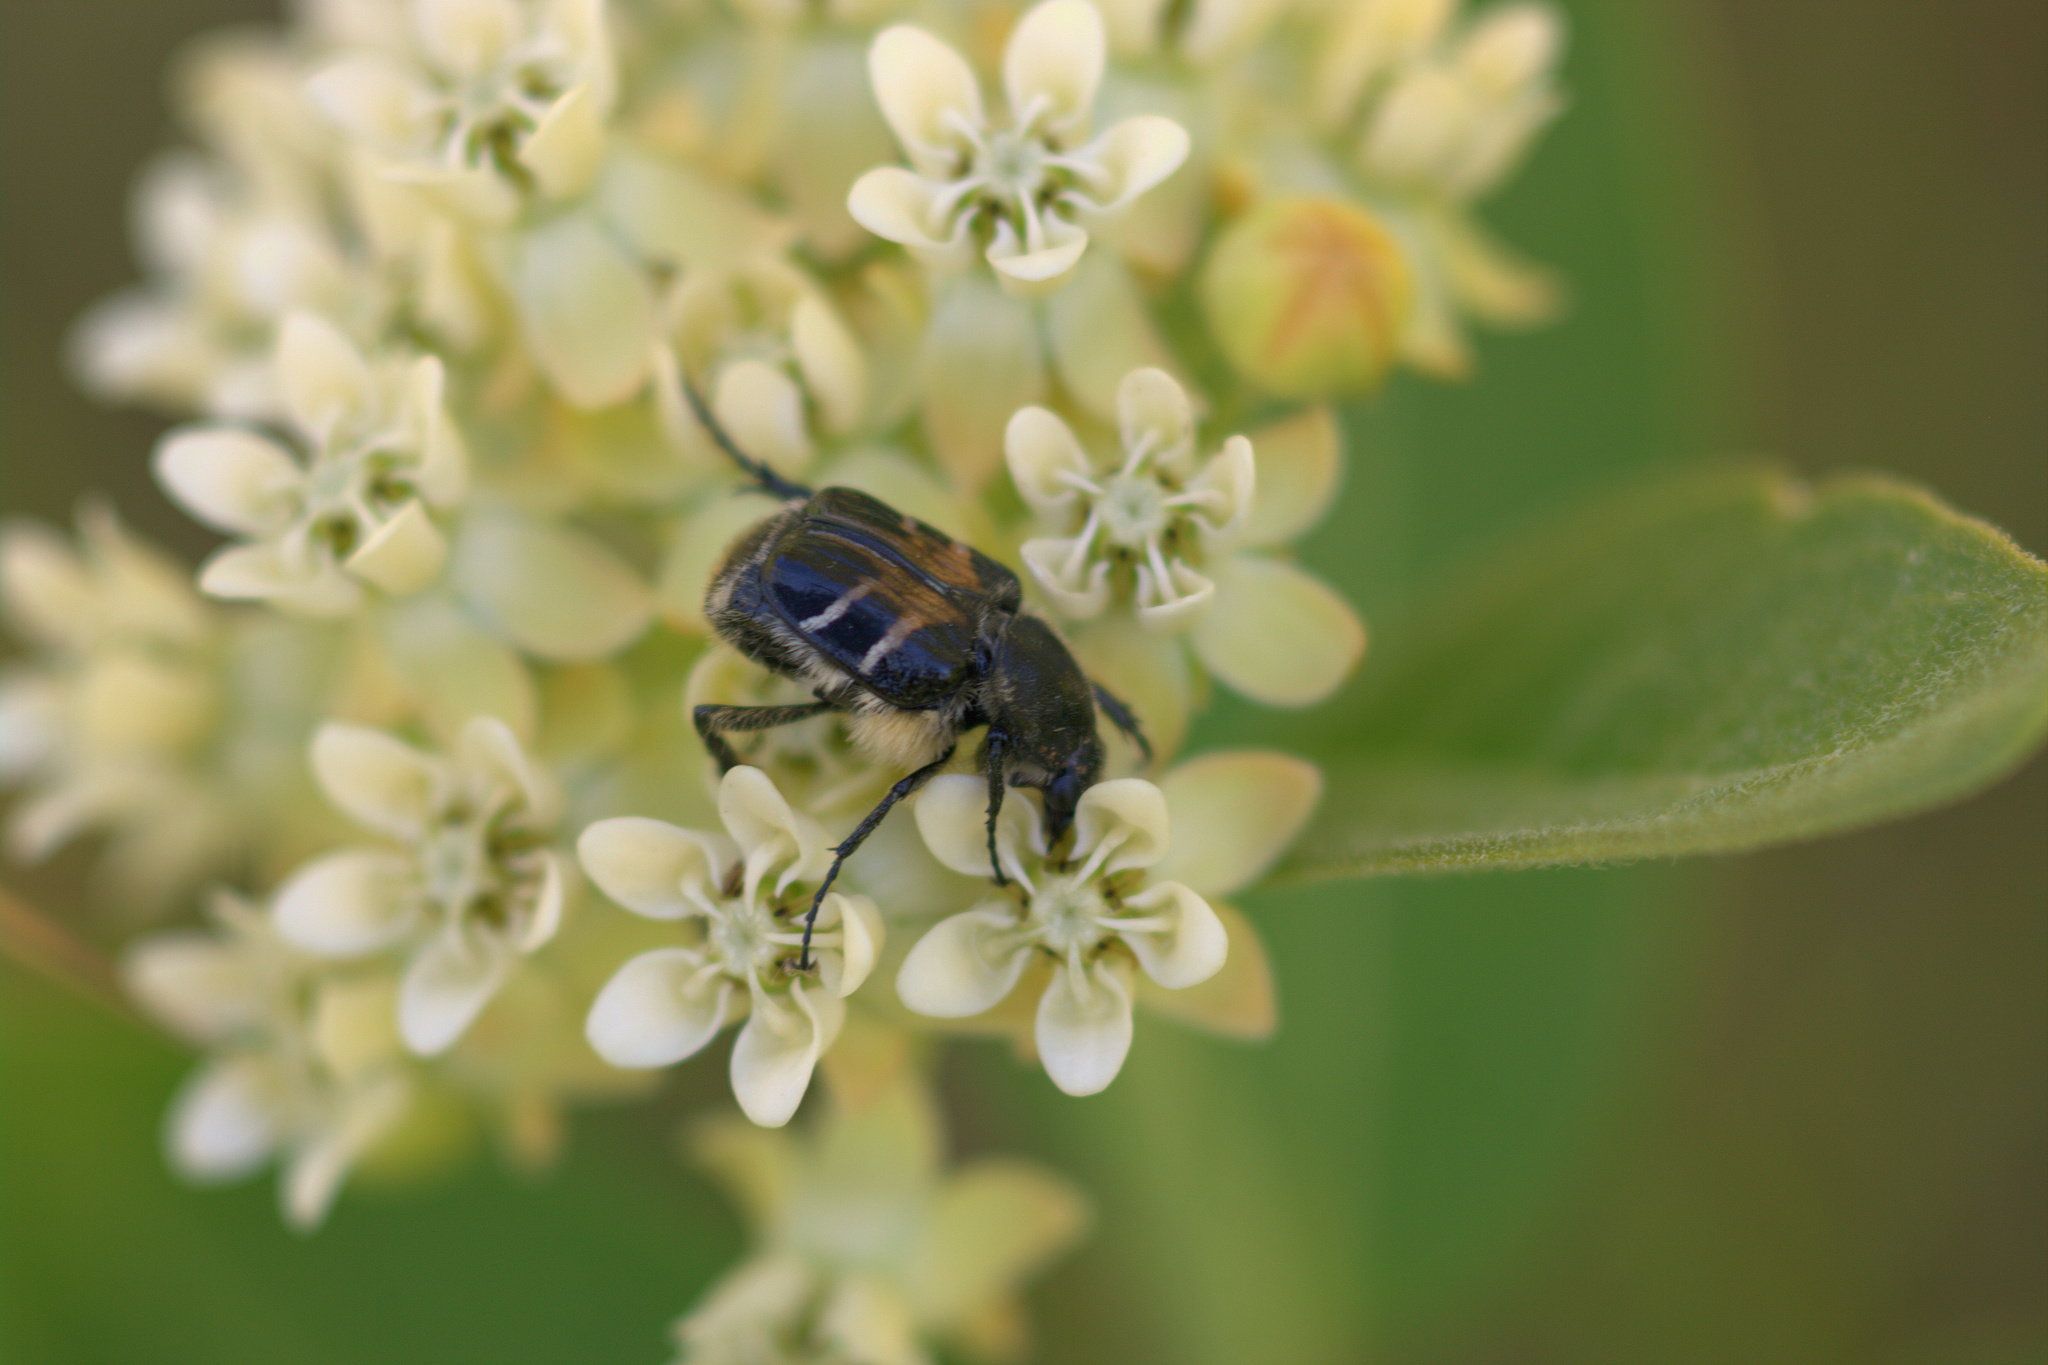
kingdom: Animalia
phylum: Arthropoda
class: Insecta
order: Coleoptera
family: Scarabaeidae
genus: Trichiotinus
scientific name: Trichiotinus assimilis
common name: Bee-mimic beetle
